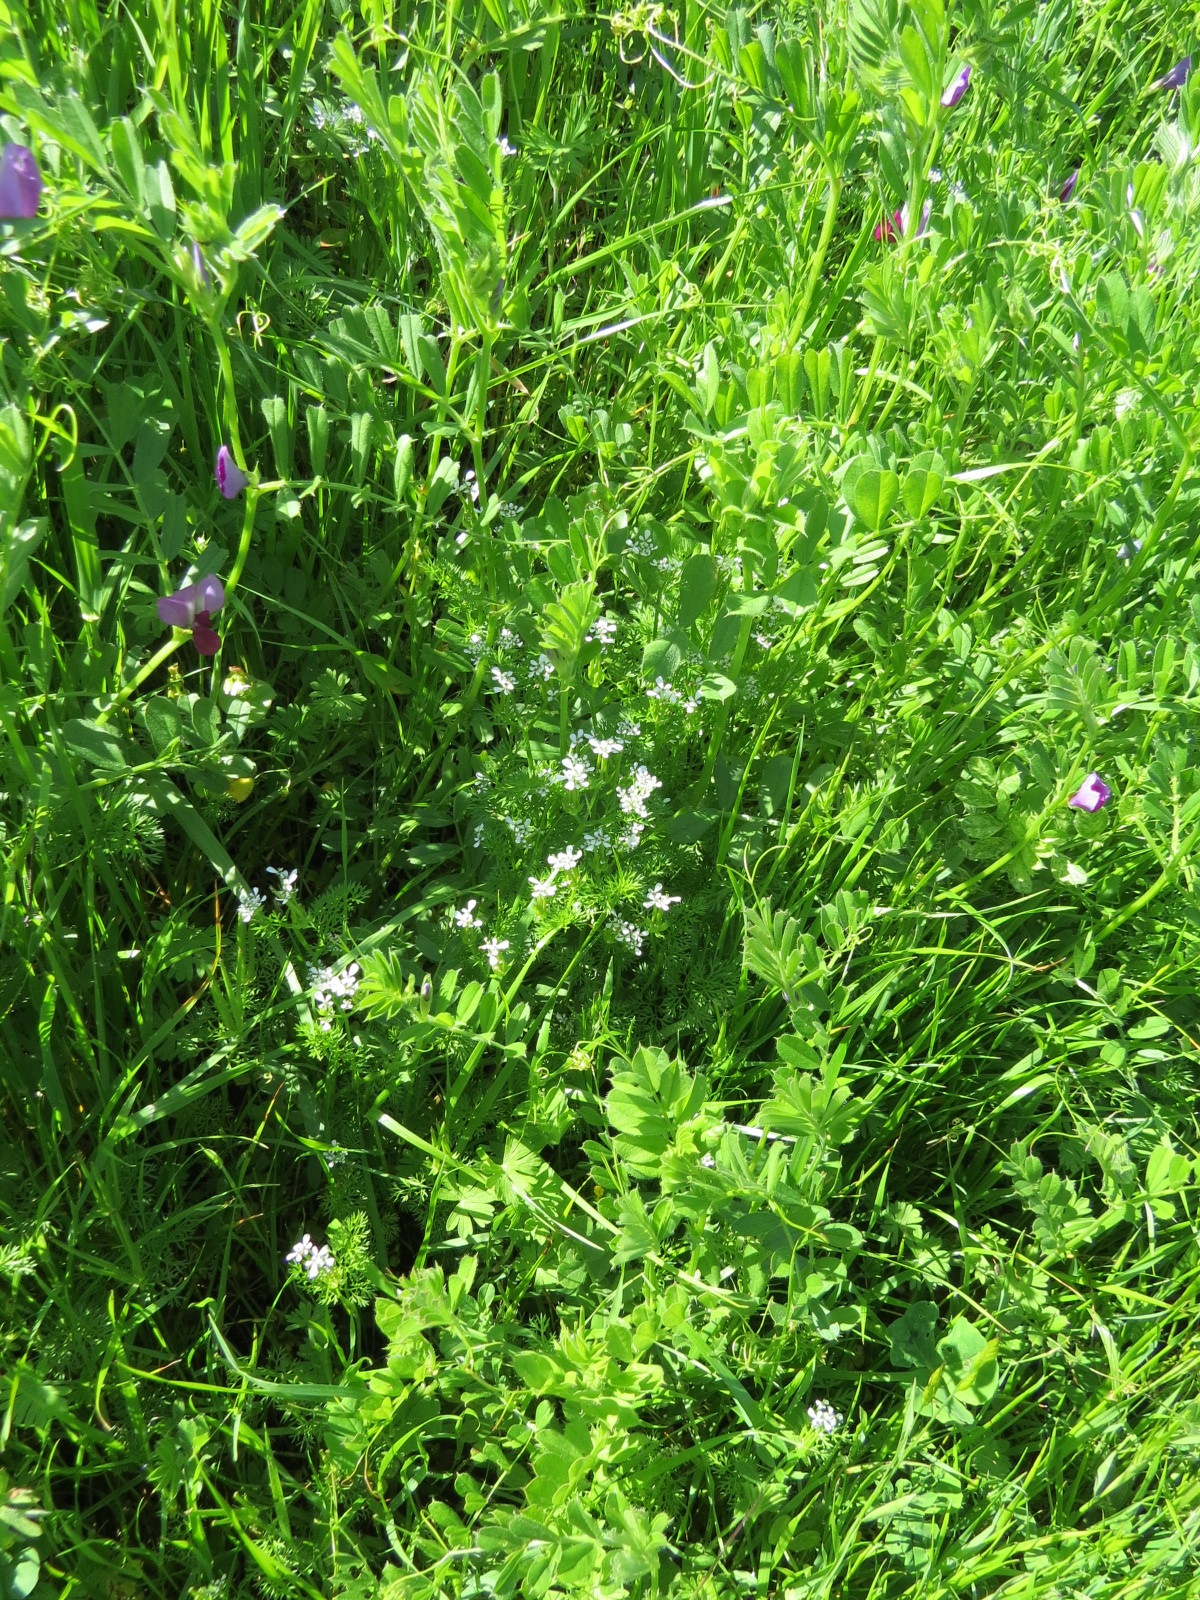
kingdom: Plantae
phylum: Tracheophyta
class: Magnoliopsida
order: Apiales
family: Apiaceae
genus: Scandix
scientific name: Scandix pecten-veneris
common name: Shepherd's-needle
